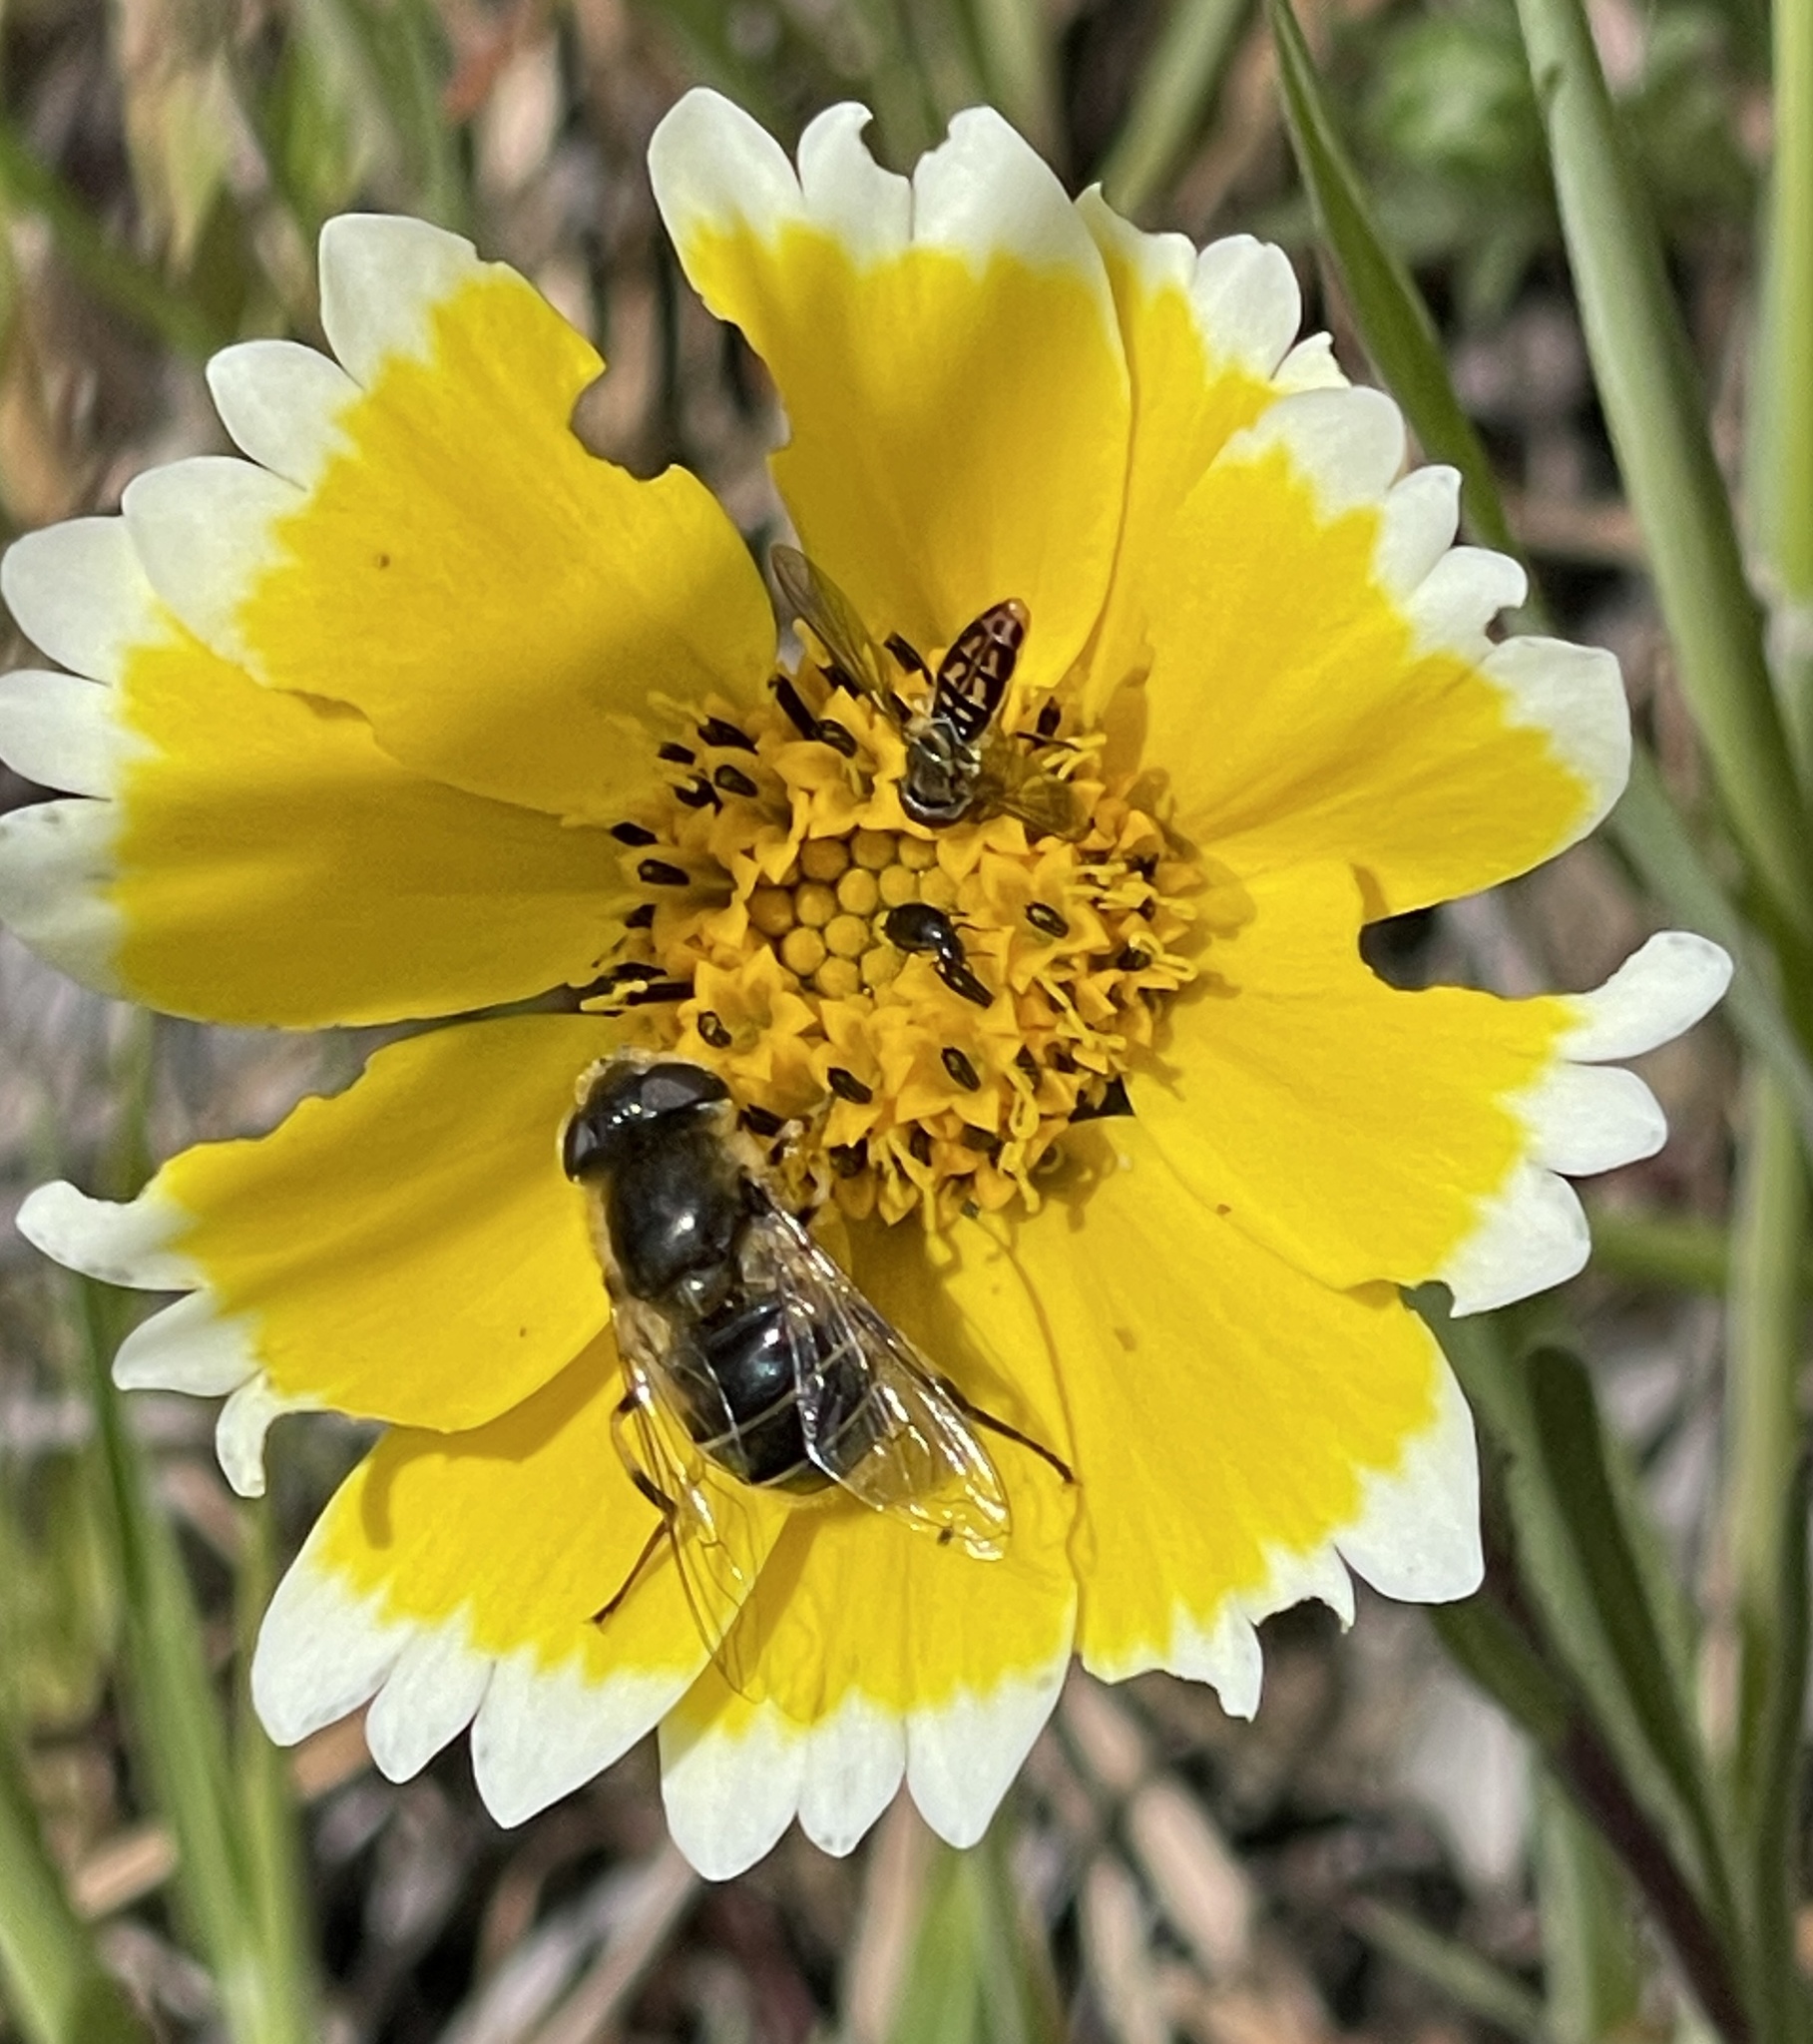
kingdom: Animalia
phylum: Arthropoda
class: Insecta
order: Diptera
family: Syrphidae
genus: Toxomerus
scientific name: Toxomerus marginatus
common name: Syrphid fly
